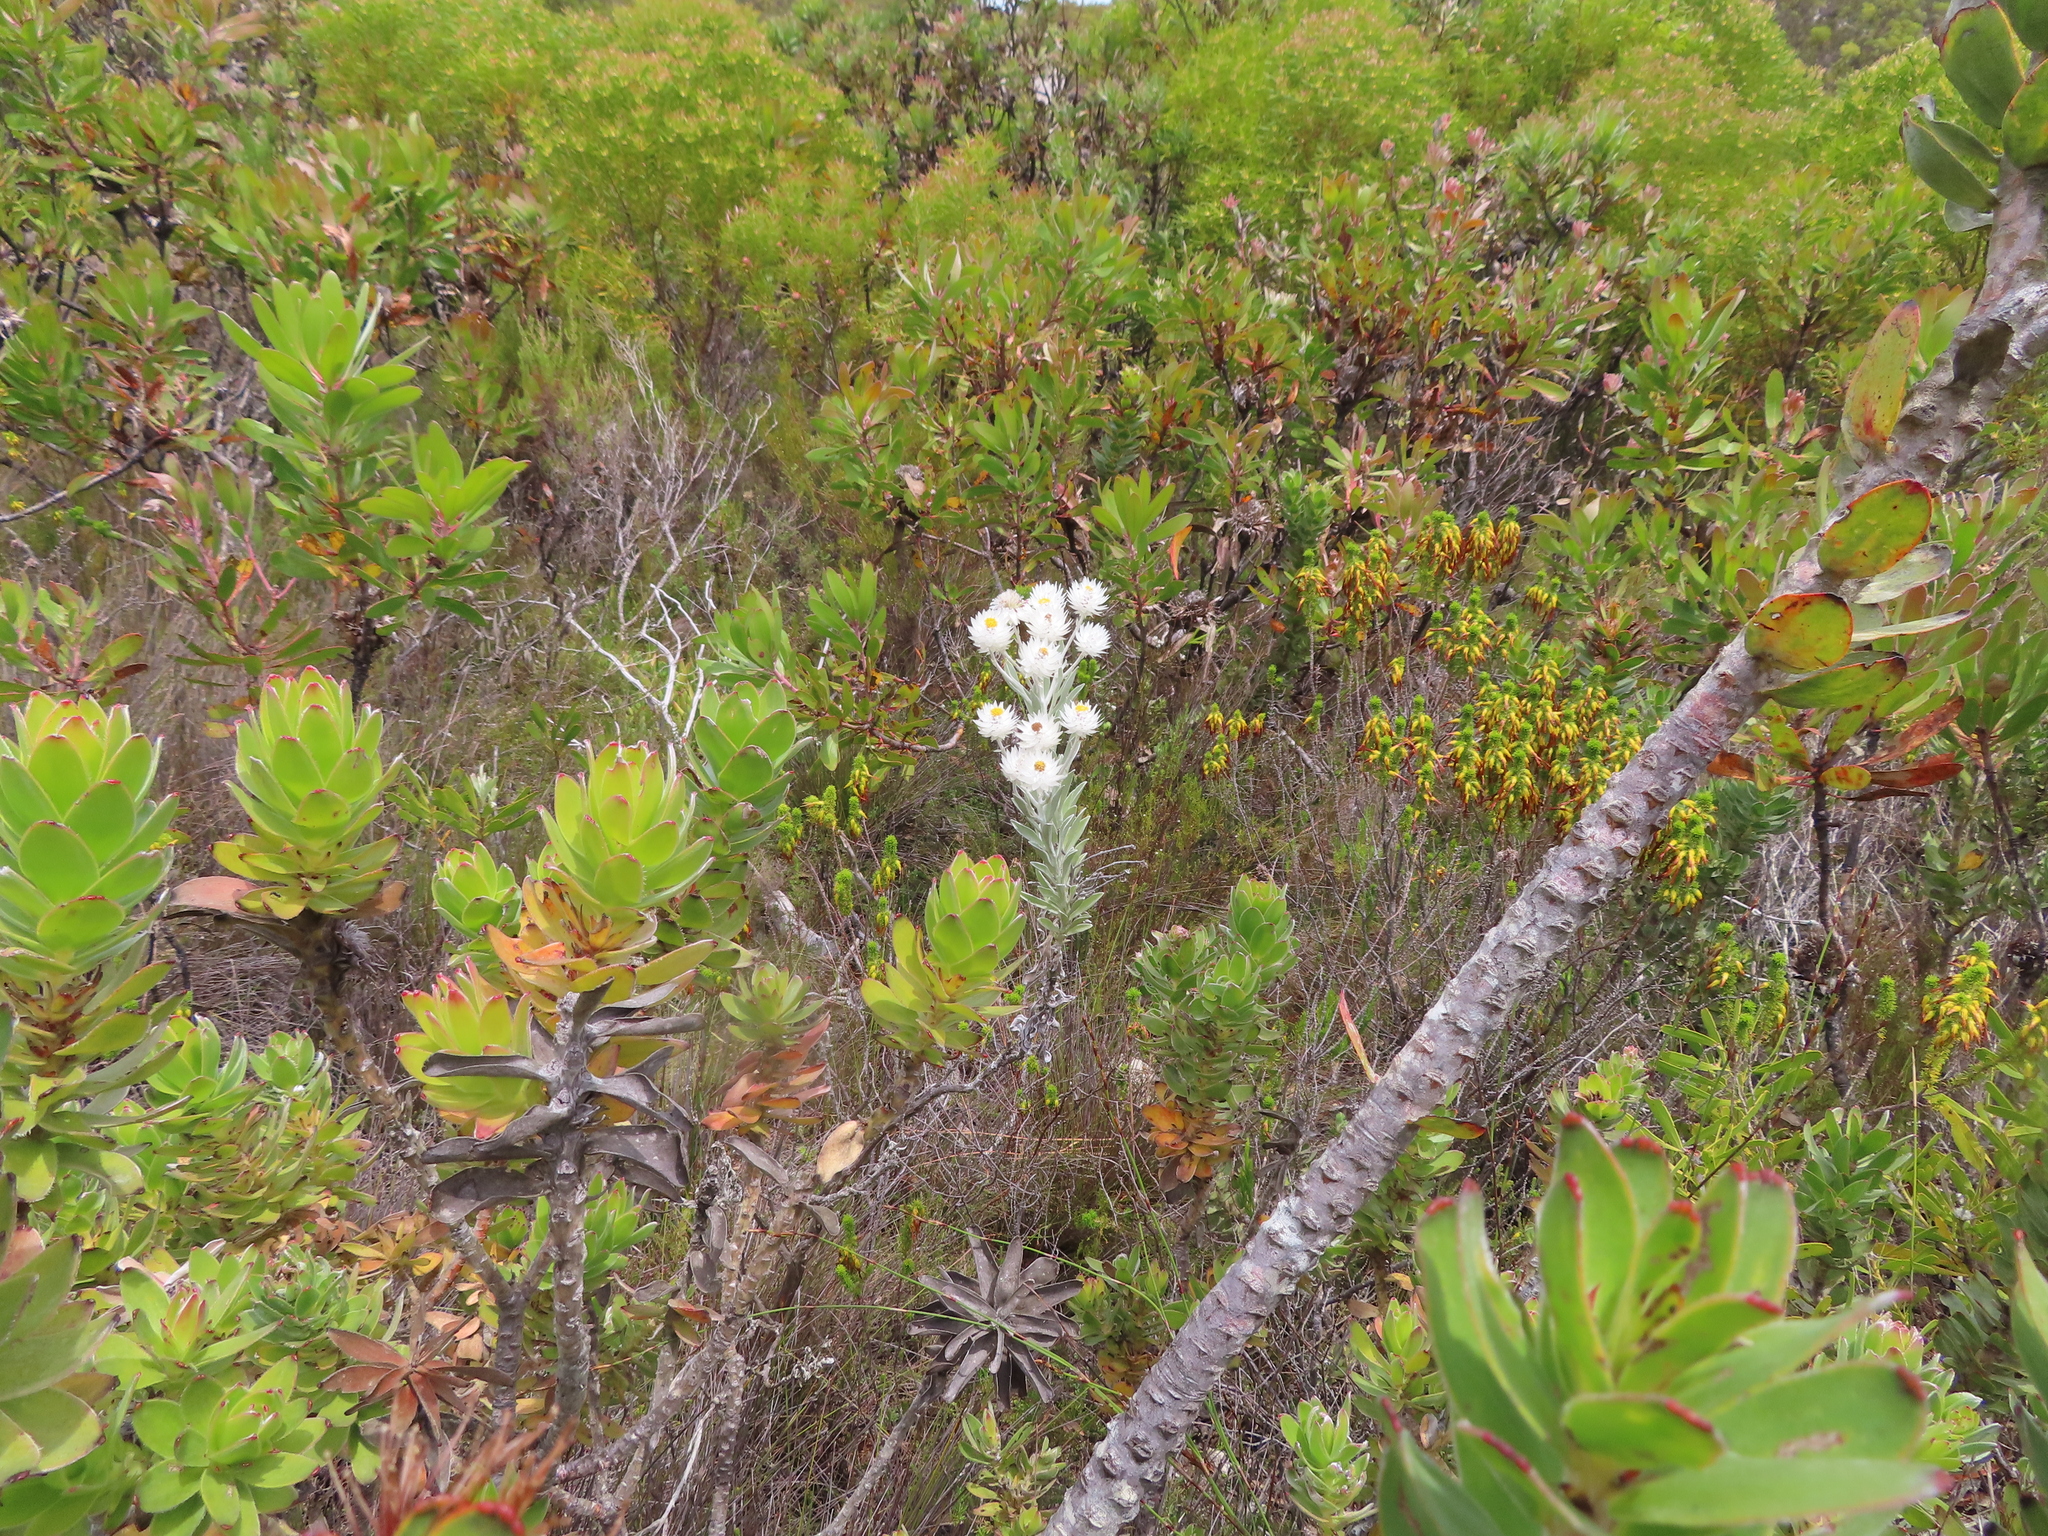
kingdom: Plantae
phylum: Tracheophyta
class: Magnoliopsida
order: Asterales
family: Asteraceae
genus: Syncarpha
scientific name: Syncarpha vestita
